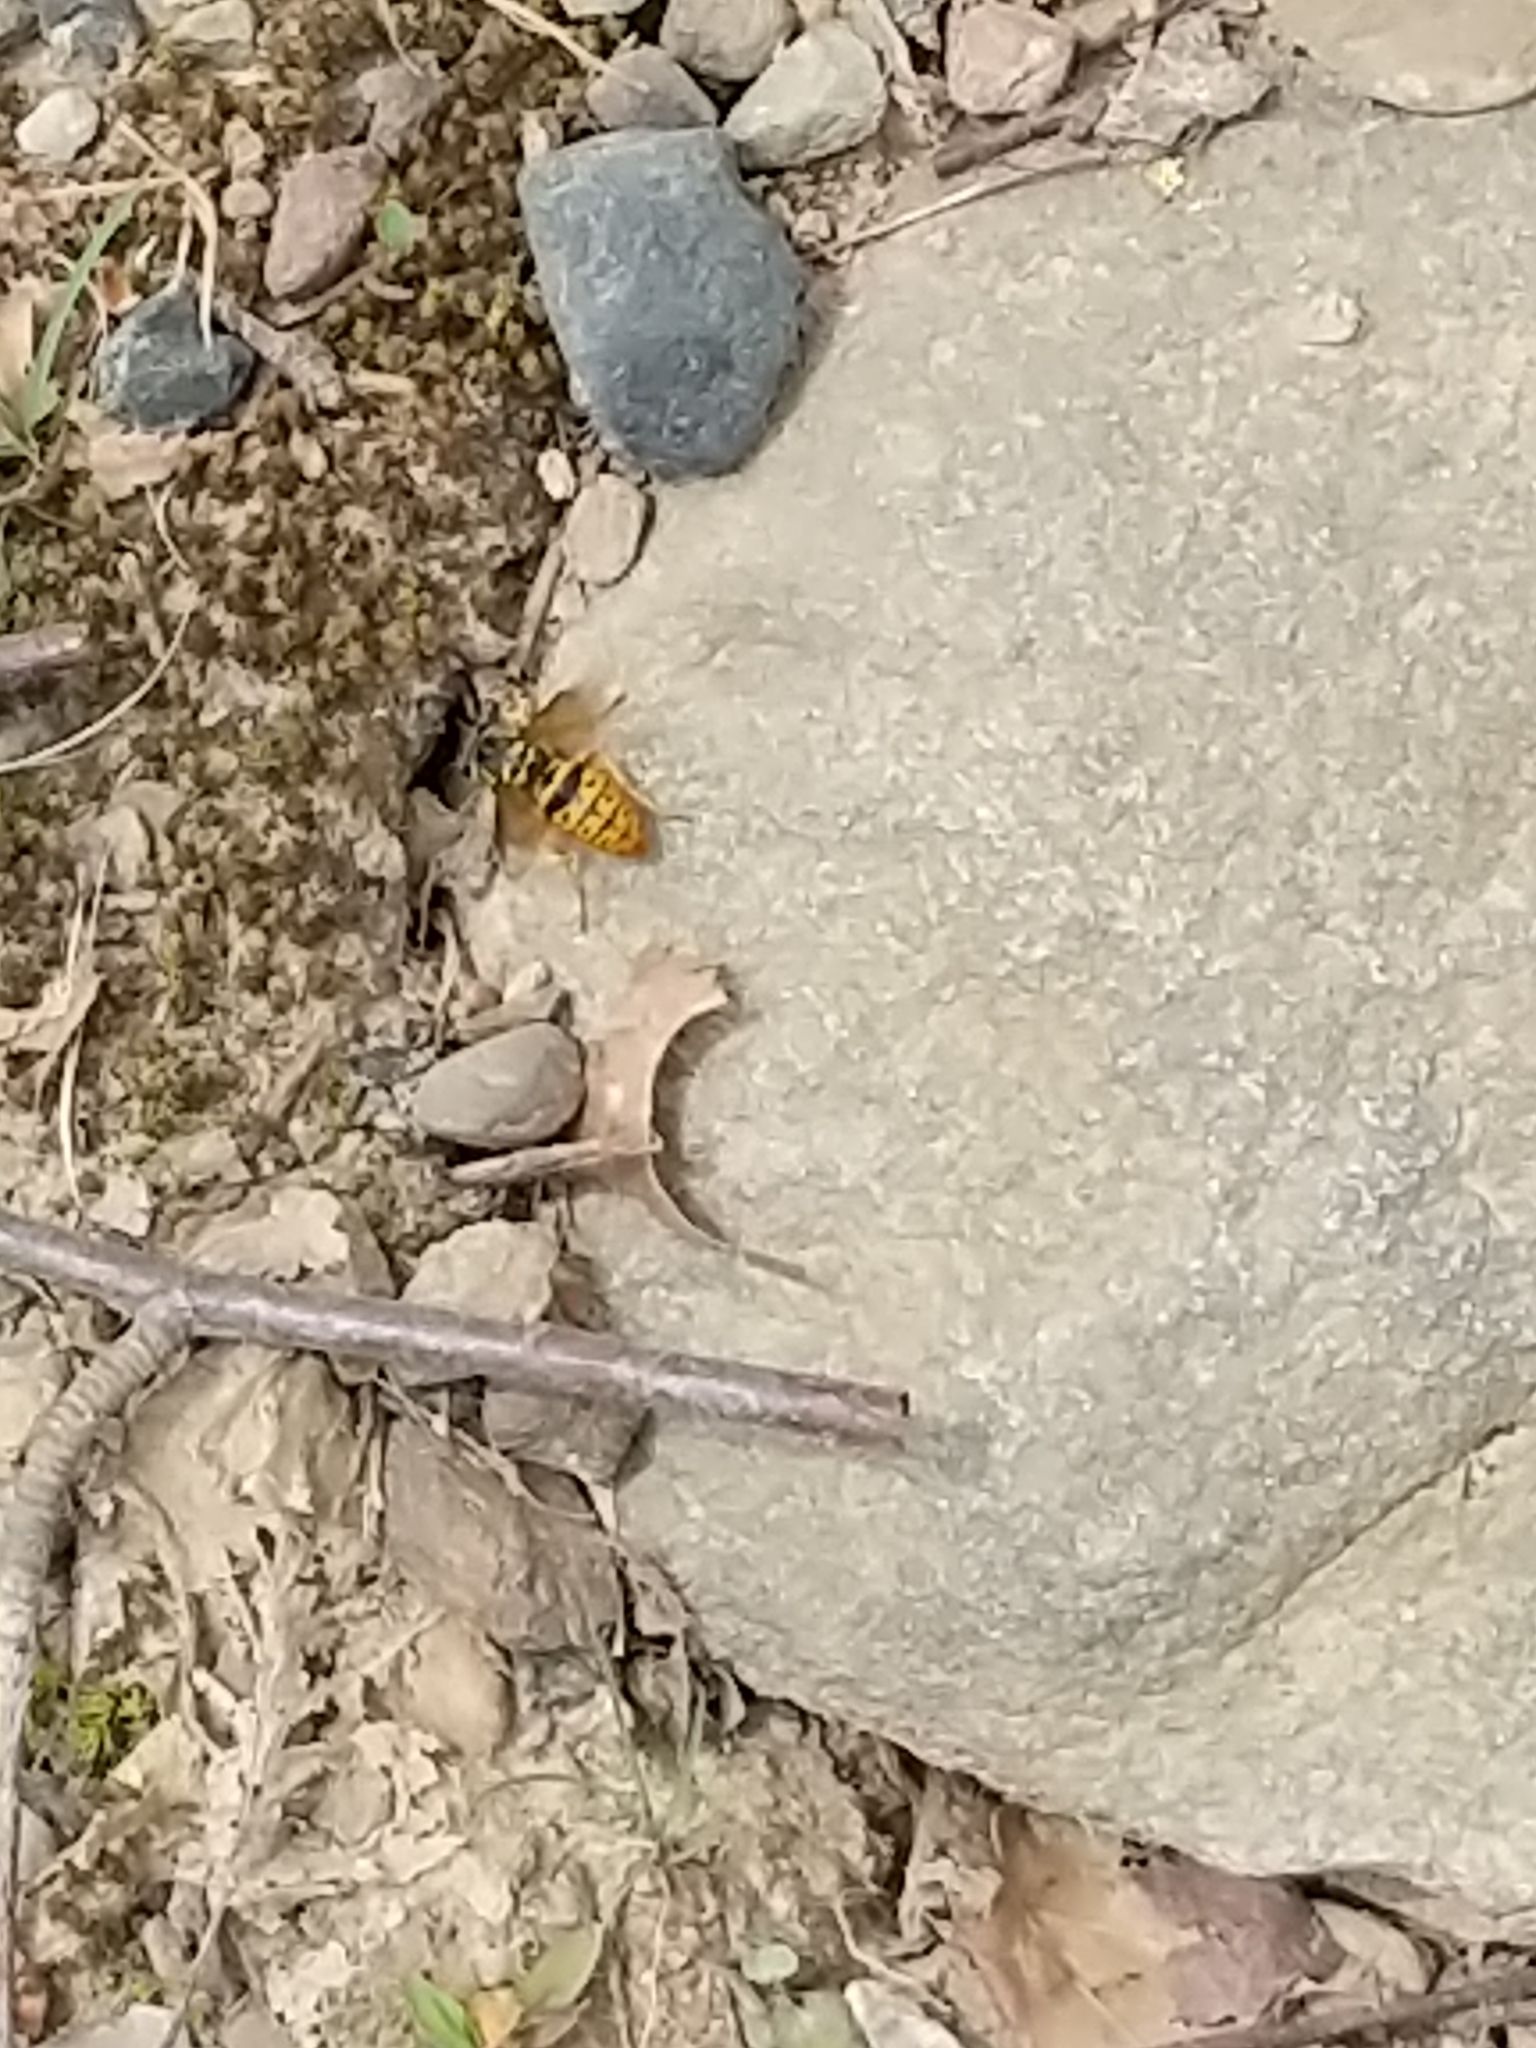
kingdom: Animalia
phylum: Arthropoda
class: Insecta
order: Hymenoptera
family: Vespidae
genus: Vespula
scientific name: Vespula maculifrons
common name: Eastern yellowjacket
